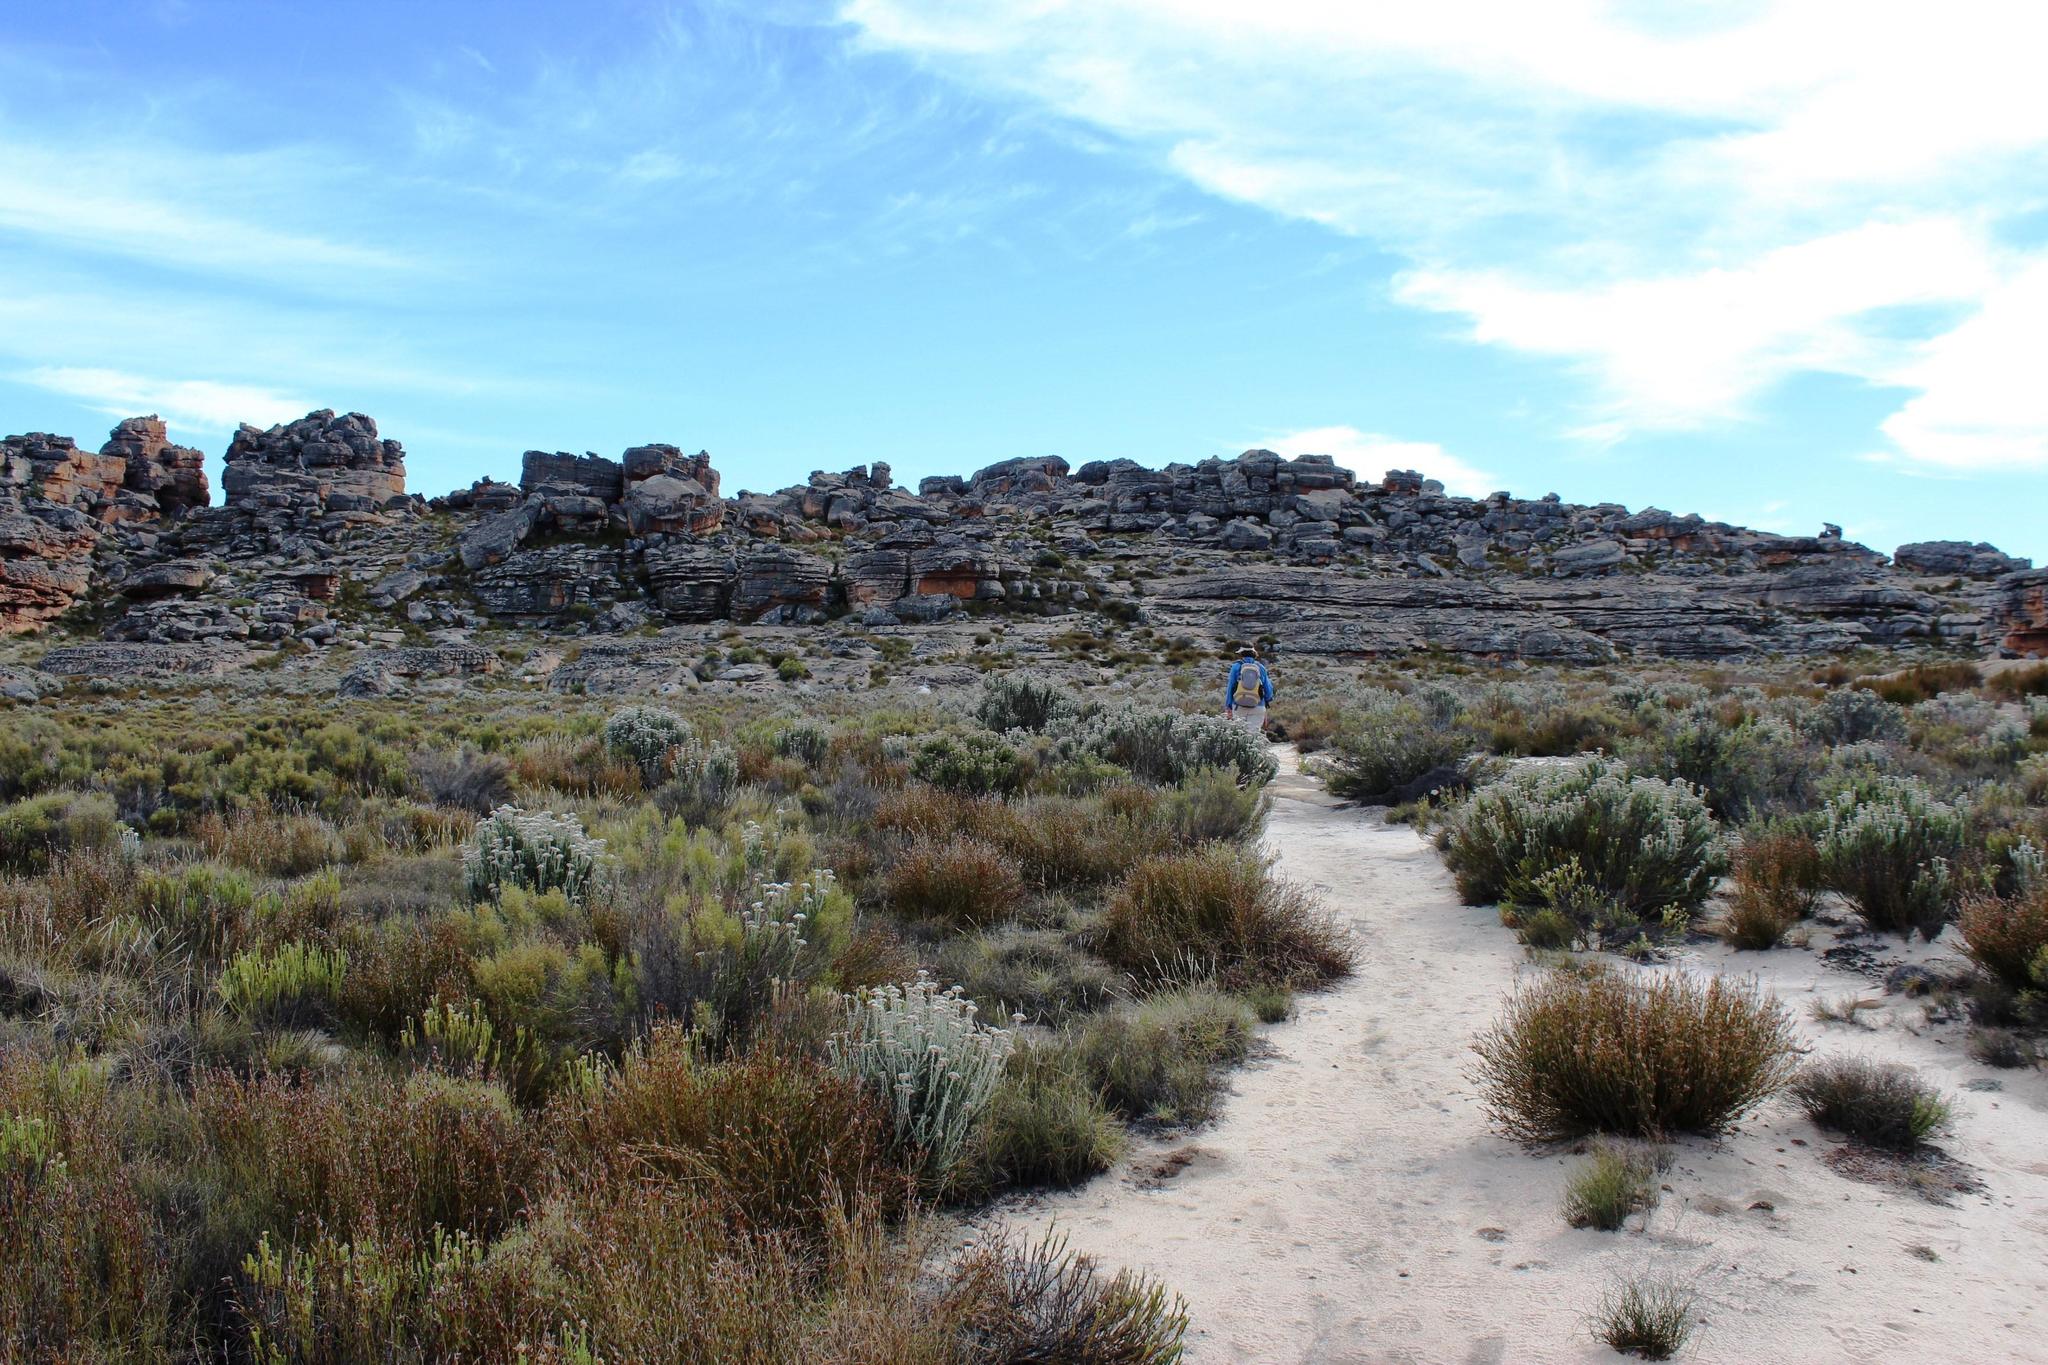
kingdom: Plantae
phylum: Tracheophyta
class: Magnoliopsida
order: Asterales
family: Asteraceae
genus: Metalasia
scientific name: Metalasia densa
